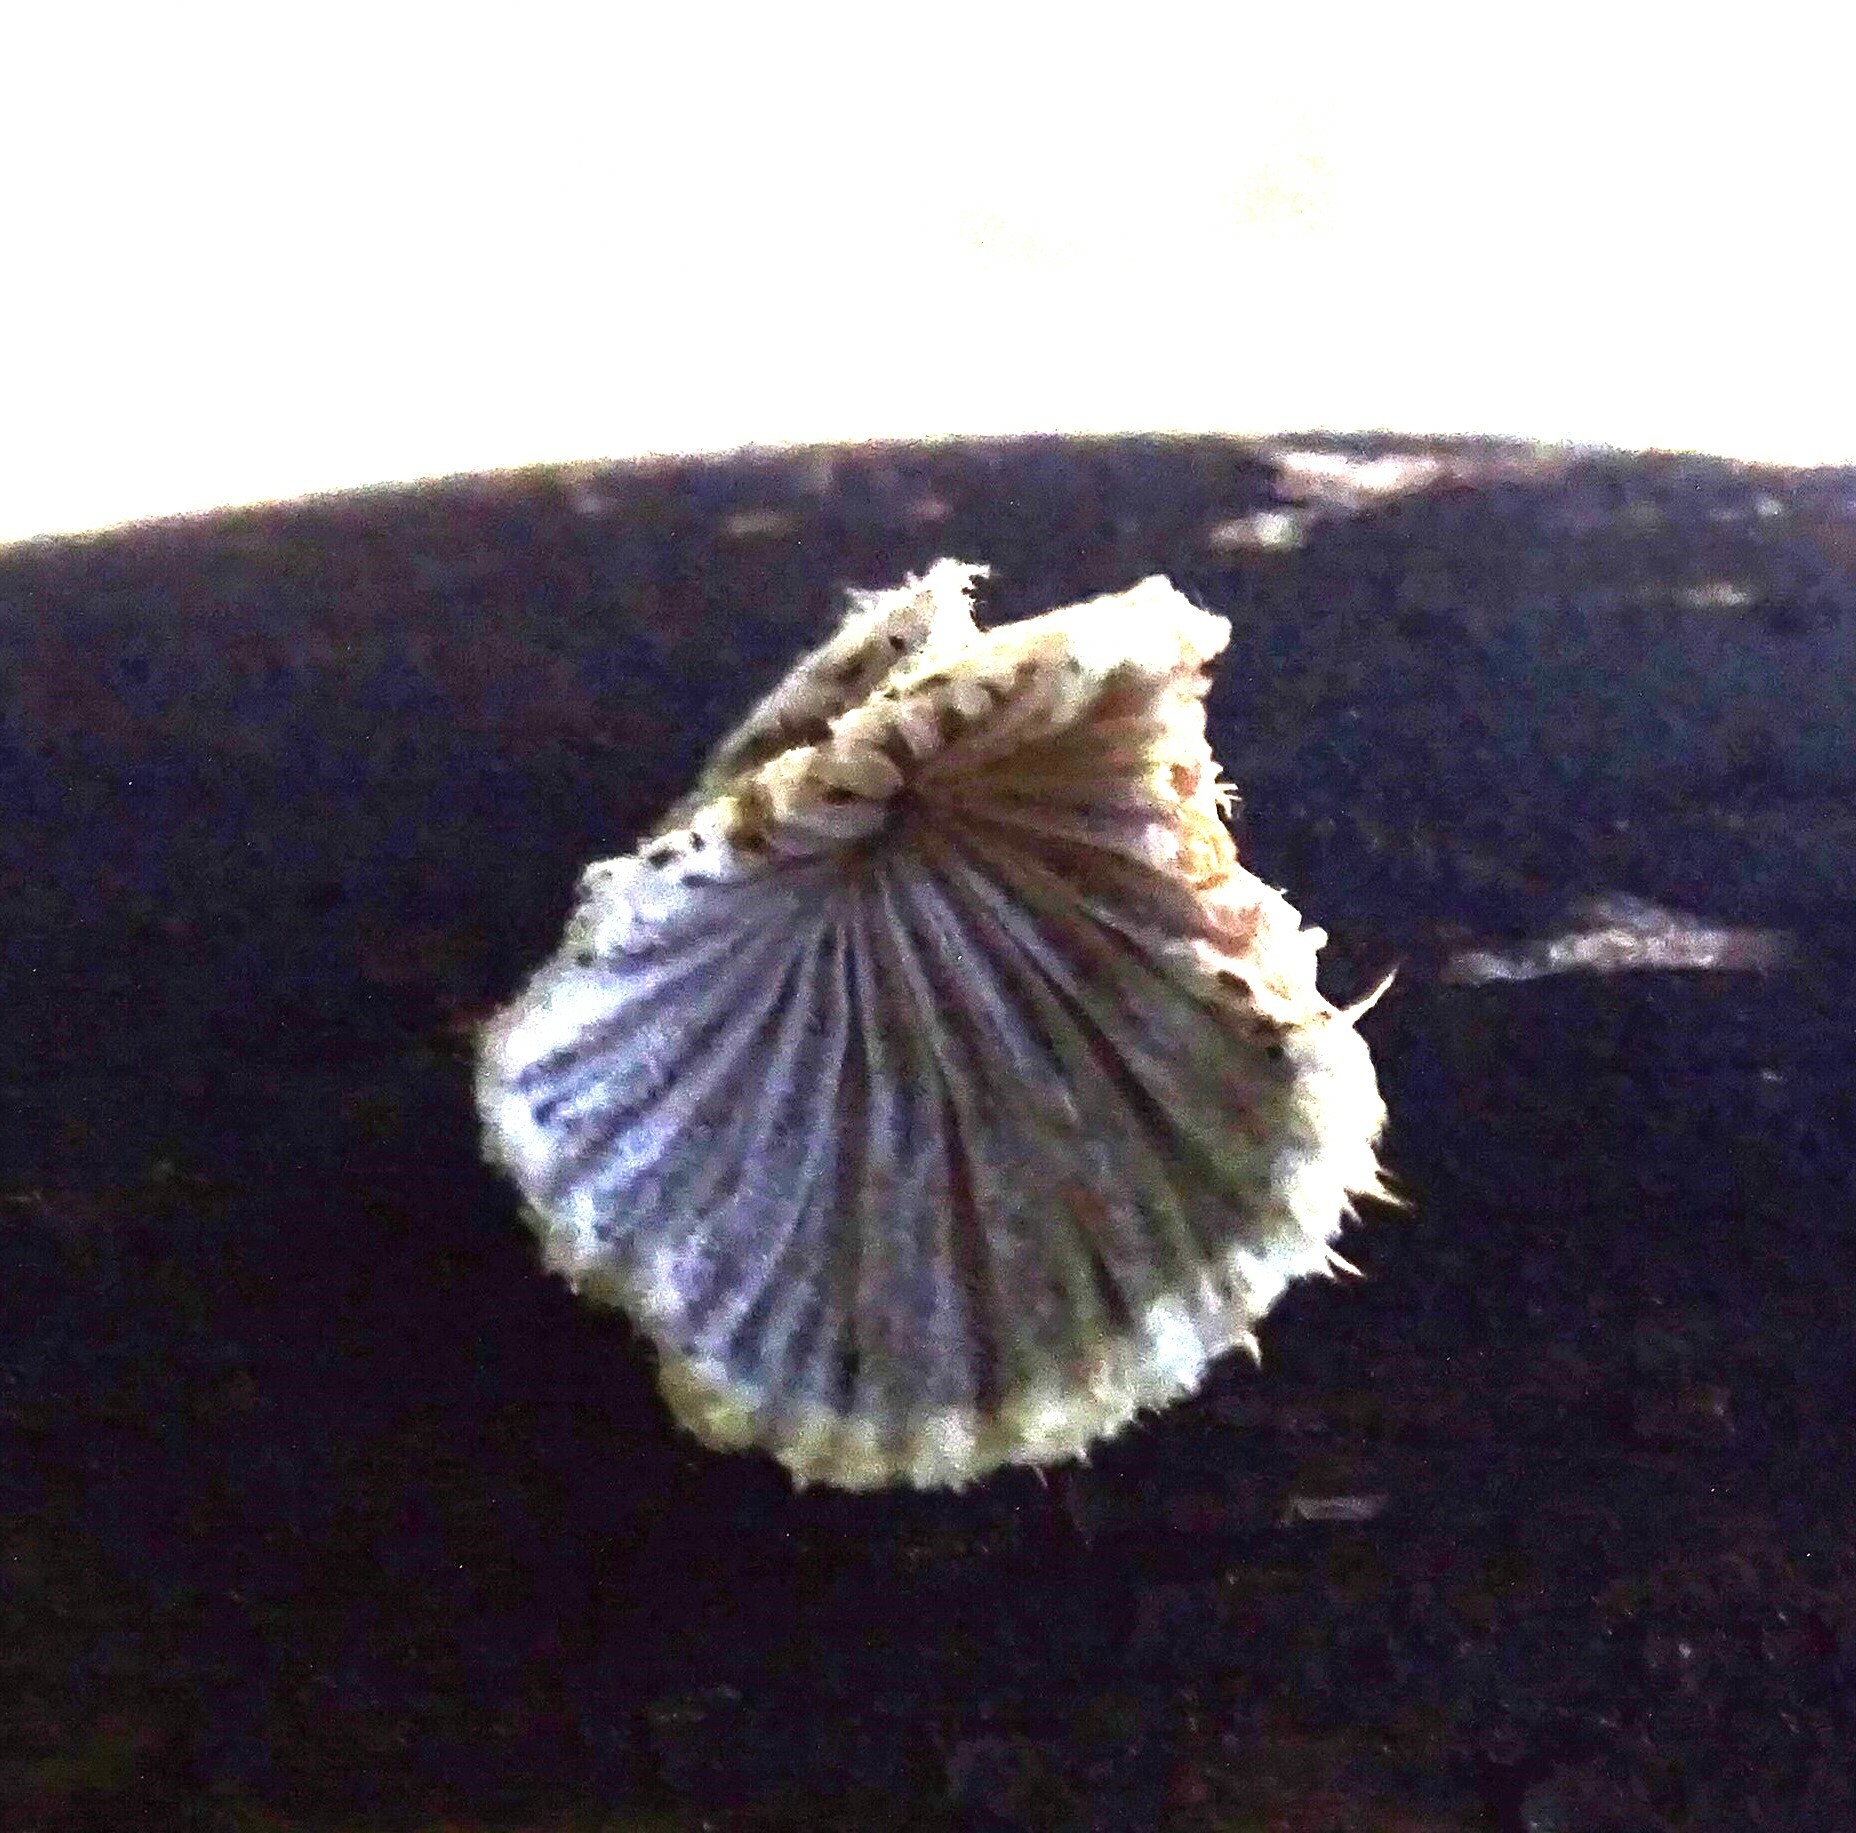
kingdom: Fungi
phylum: Basidiomycota
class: Agaricomycetes
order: Agaricales
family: Schizophyllaceae
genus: Schizophyllum
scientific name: Schizophyllum commune
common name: Common porecrust
